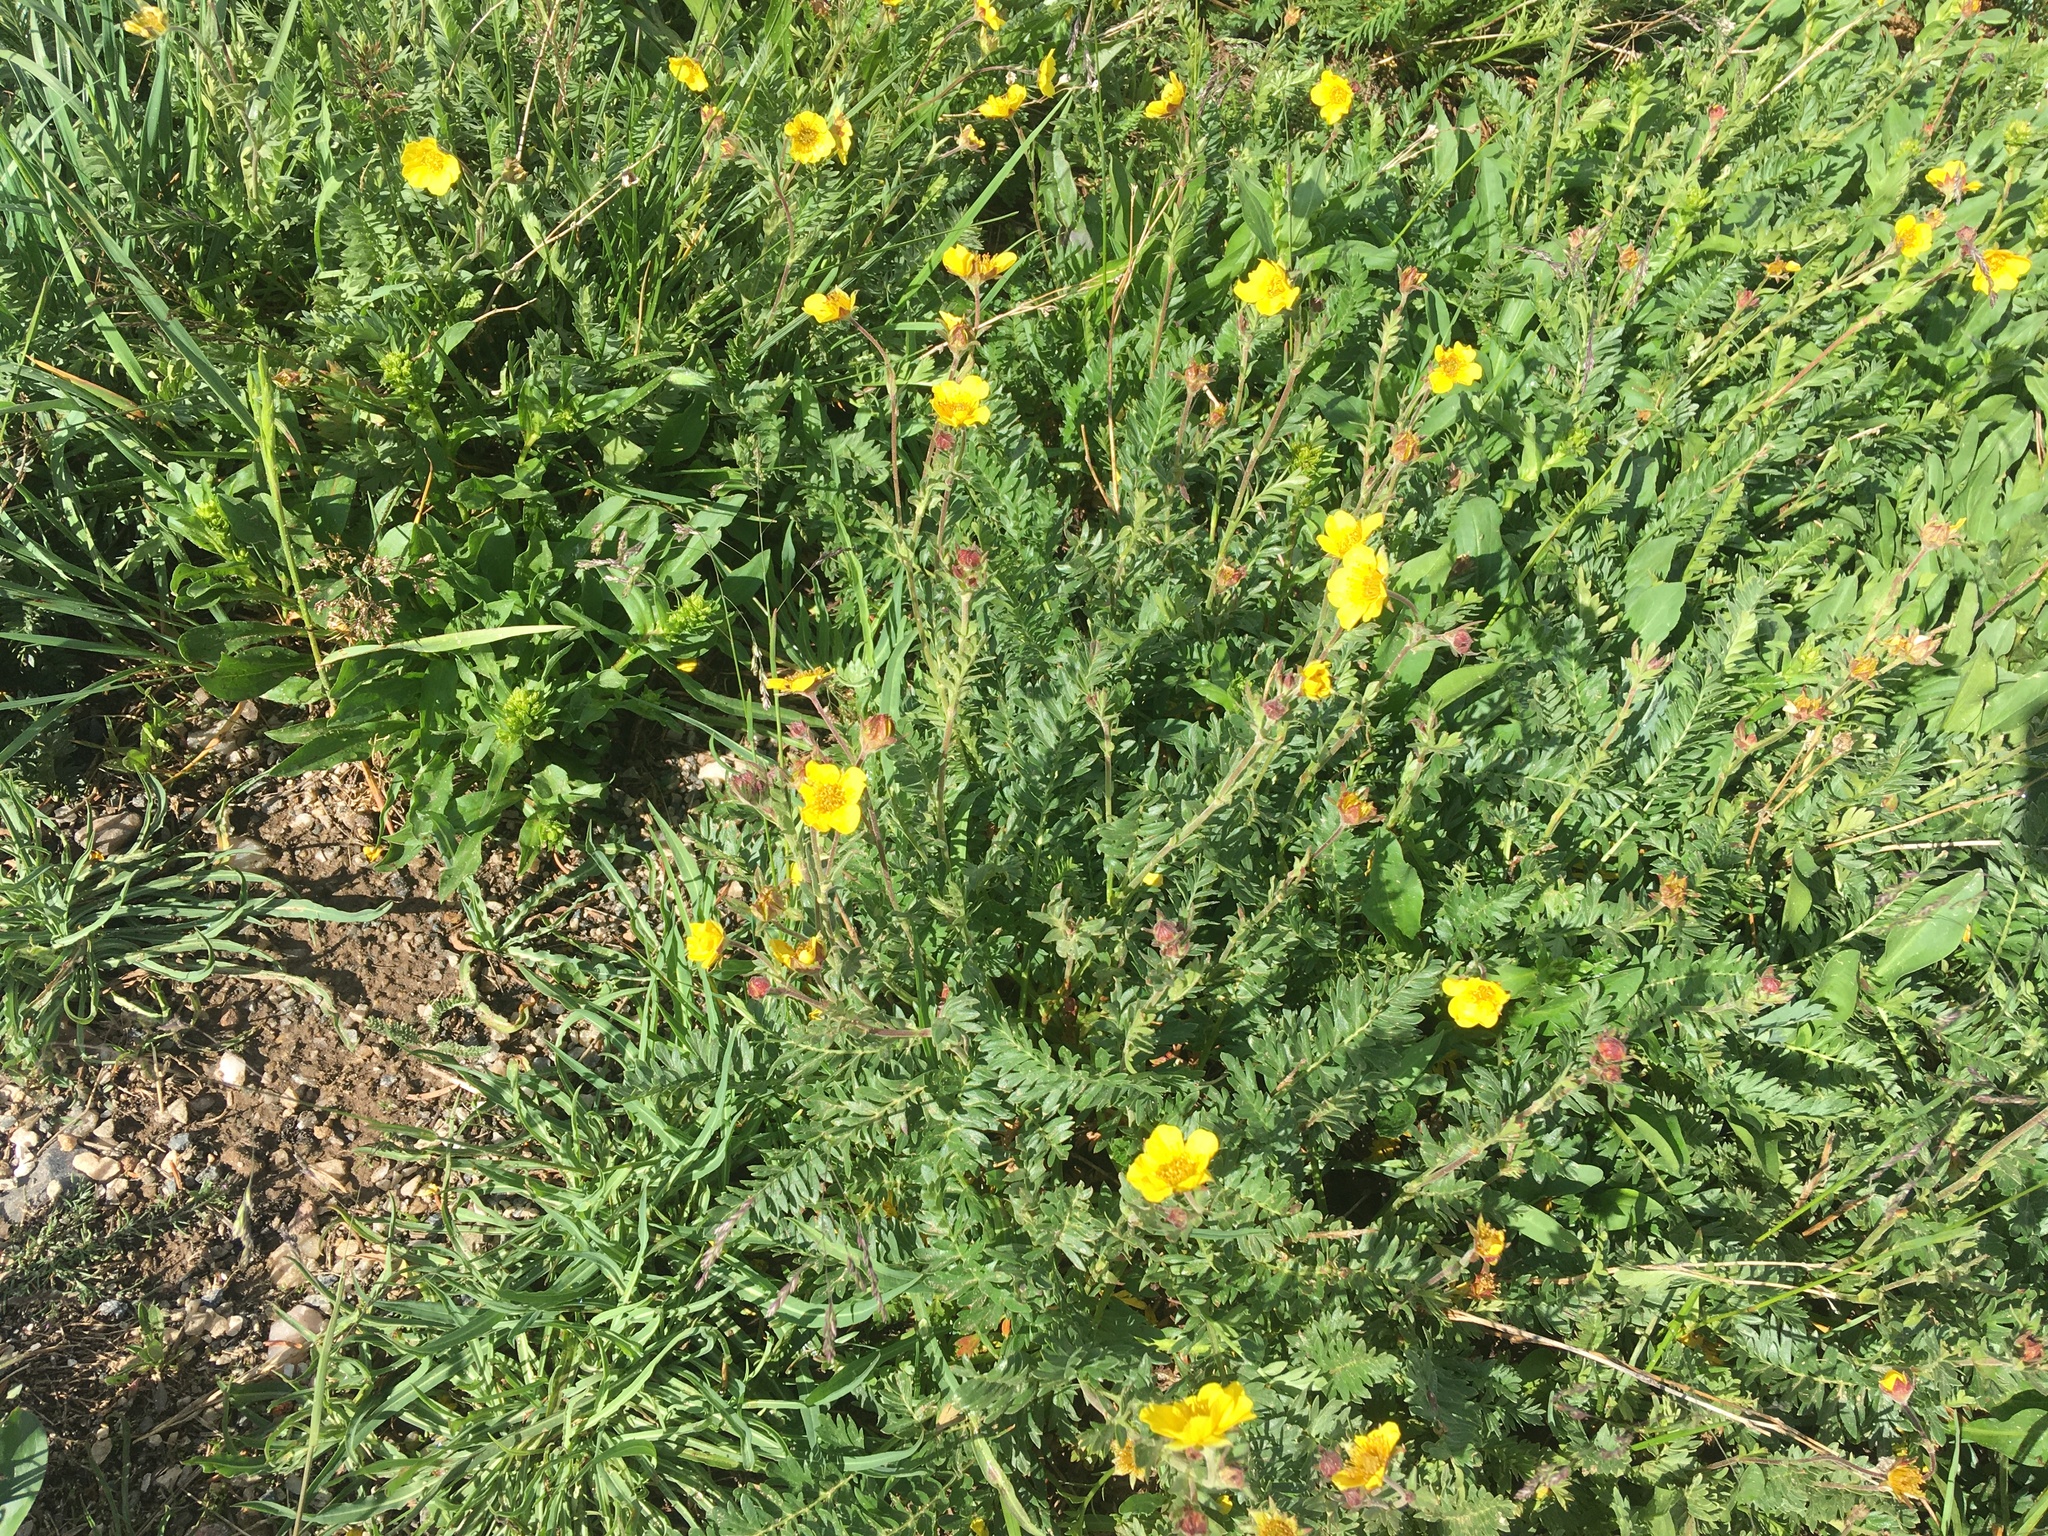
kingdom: Plantae
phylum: Tracheophyta
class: Magnoliopsida
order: Rosales
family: Rosaceae
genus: Geum
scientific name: Geum rossii
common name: Alpine avens
